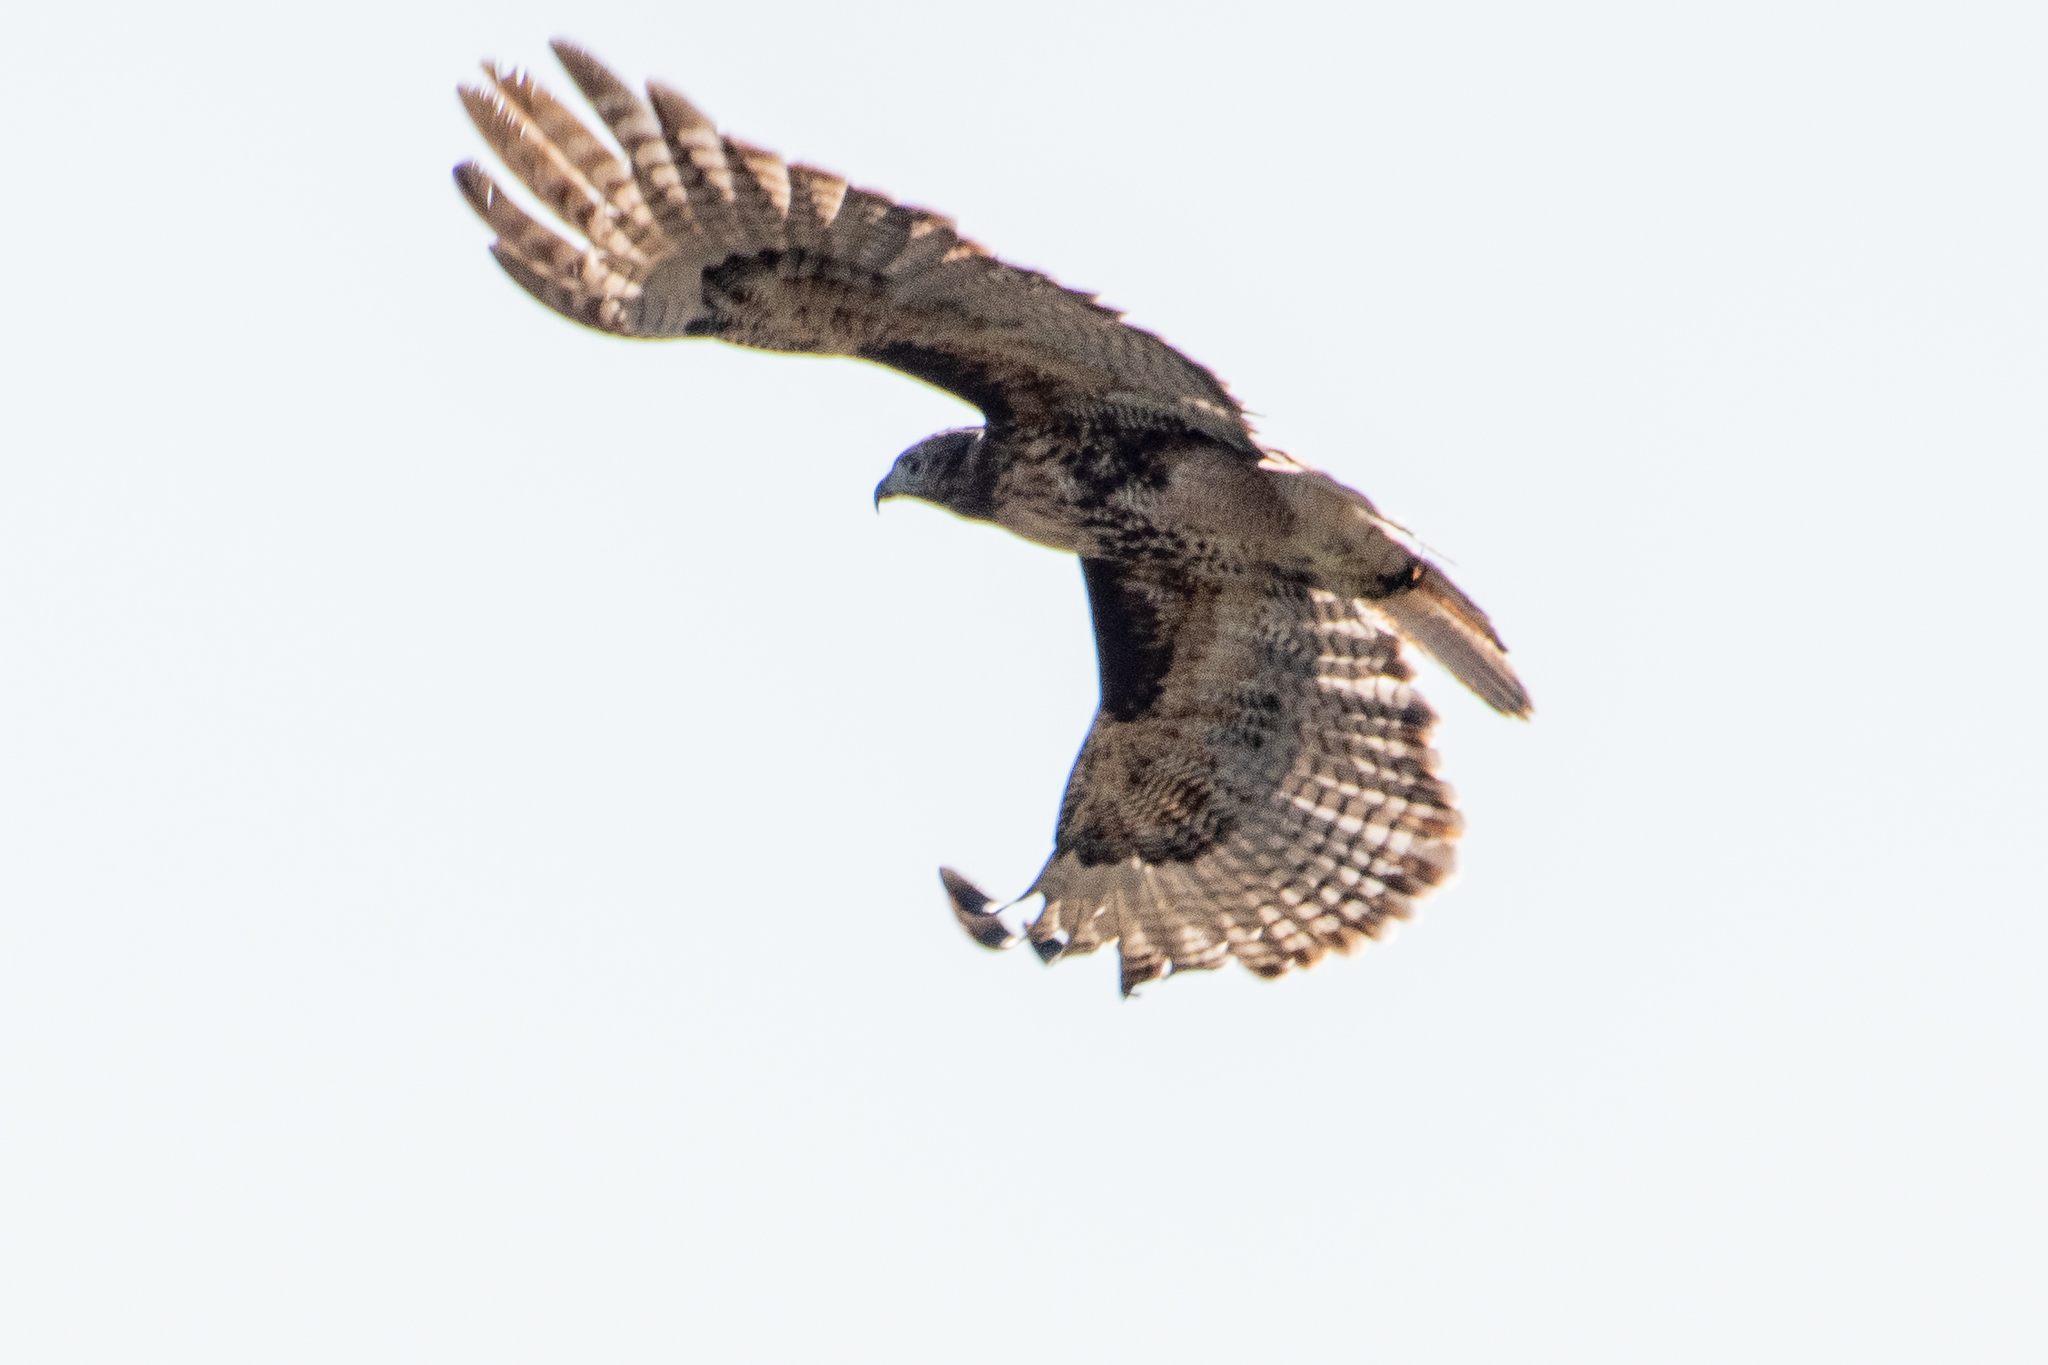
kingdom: Animalia
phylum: Chordata
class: Aves
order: Accipitriformes
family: Accipitridae
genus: Buteo
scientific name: Buteo jamaicensis
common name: Red-tailed hawk
